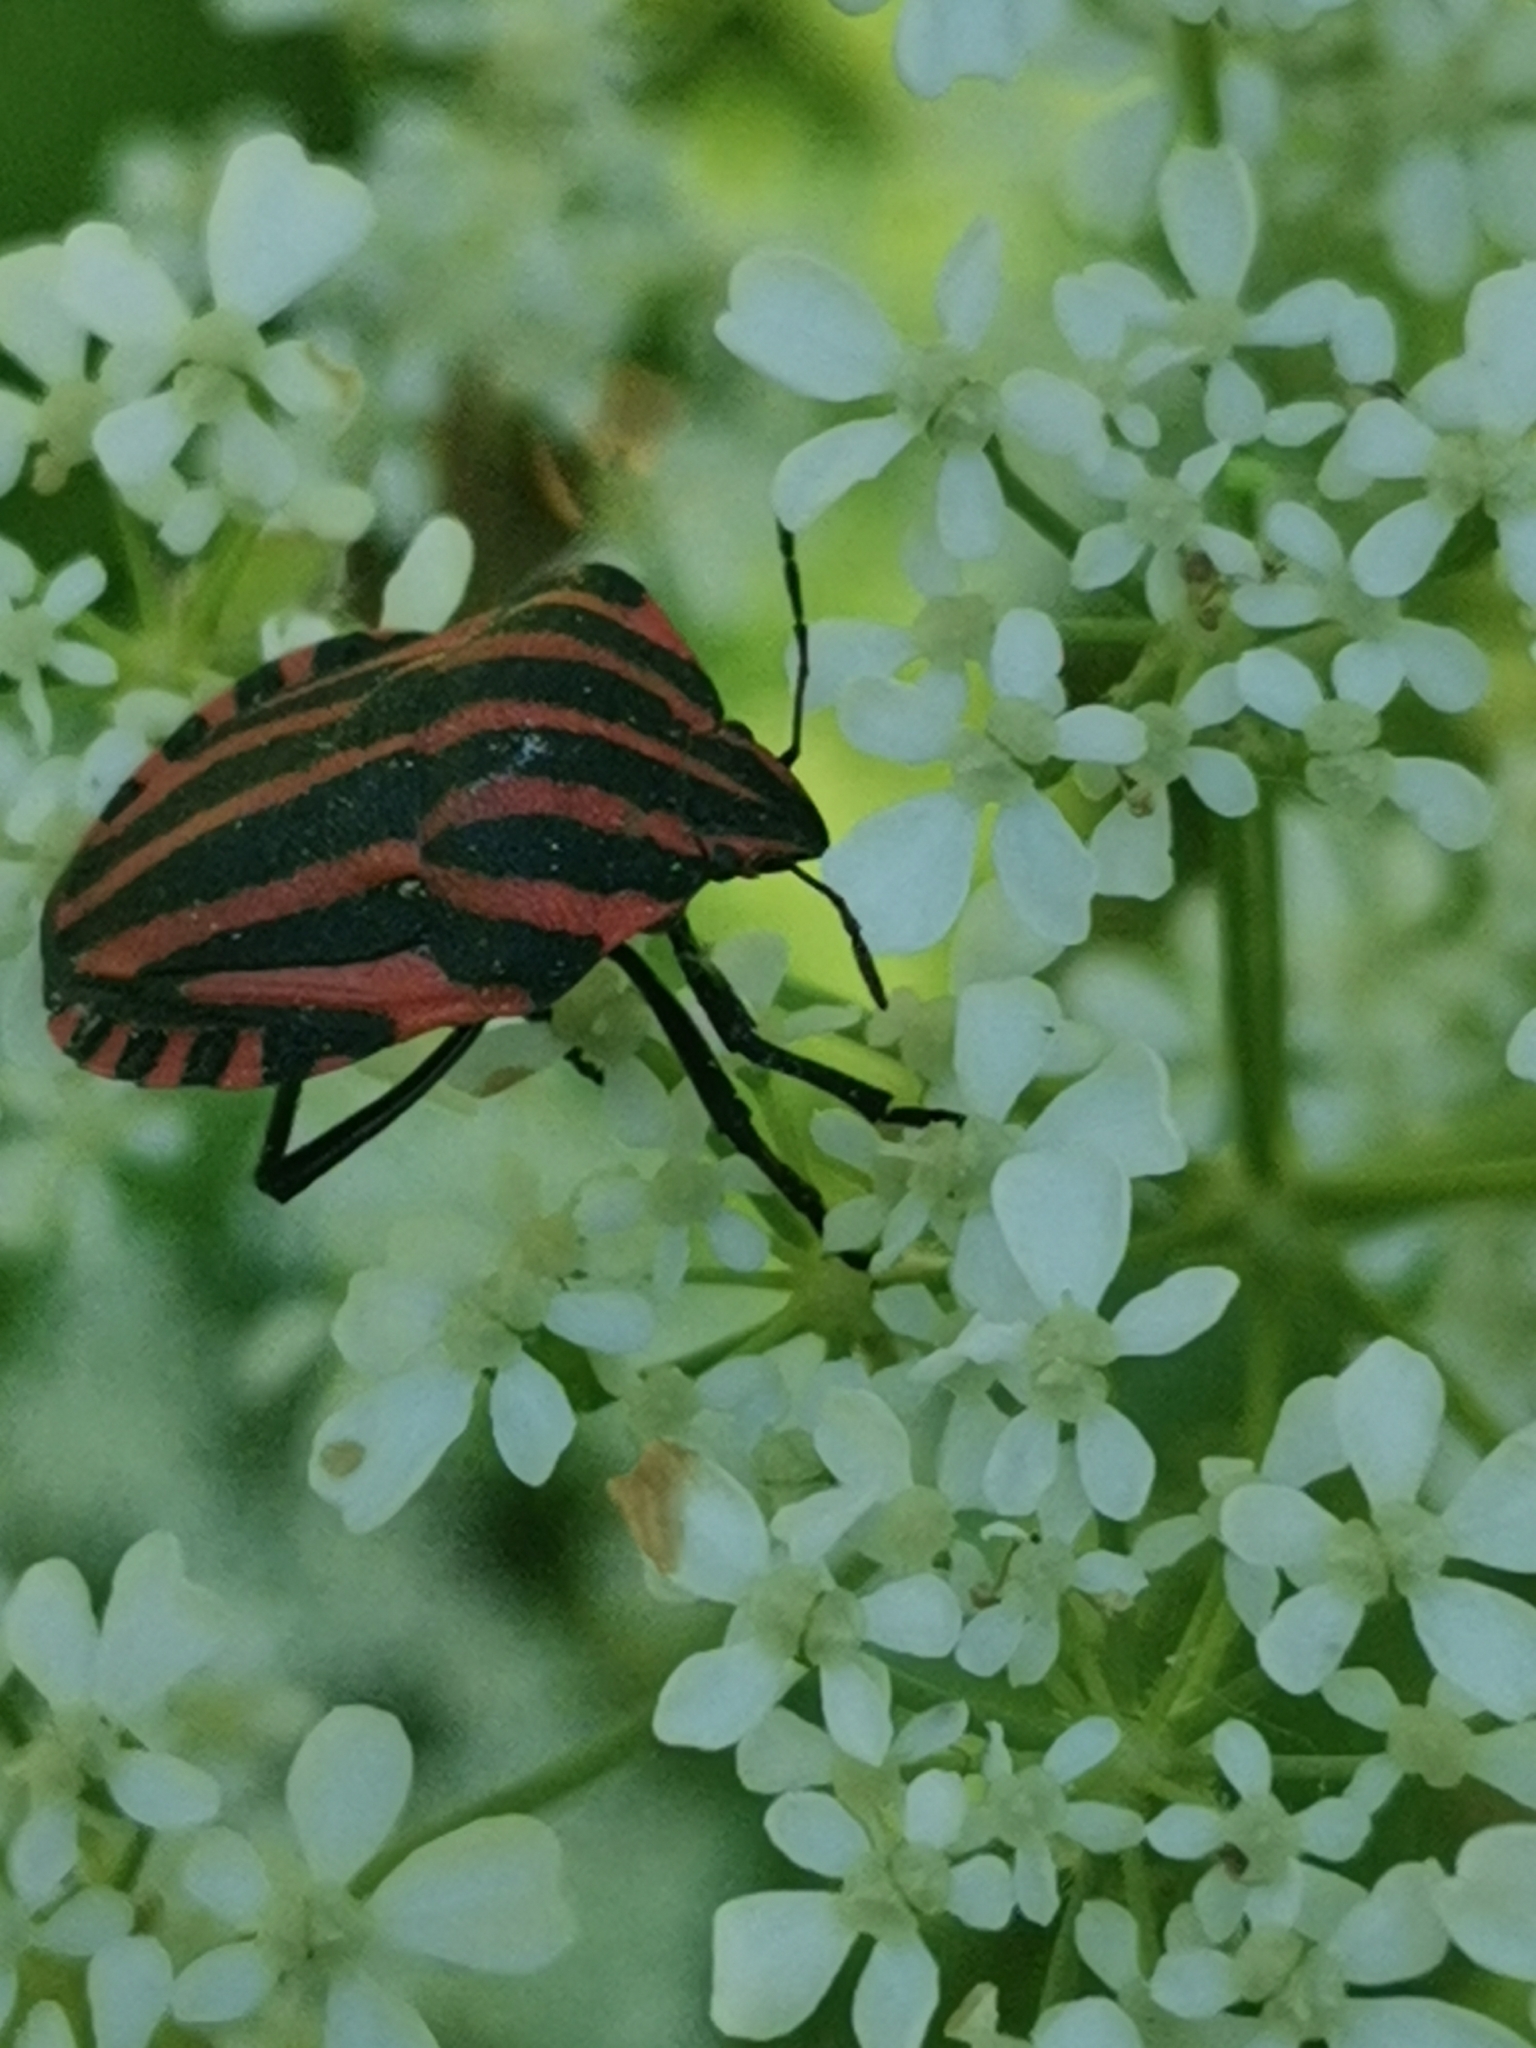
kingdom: Animalia
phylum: Arthropoda
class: Insecta
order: Hemiptera
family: Pentatomidae
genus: Graphosoma
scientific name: Graphosoma italicum
